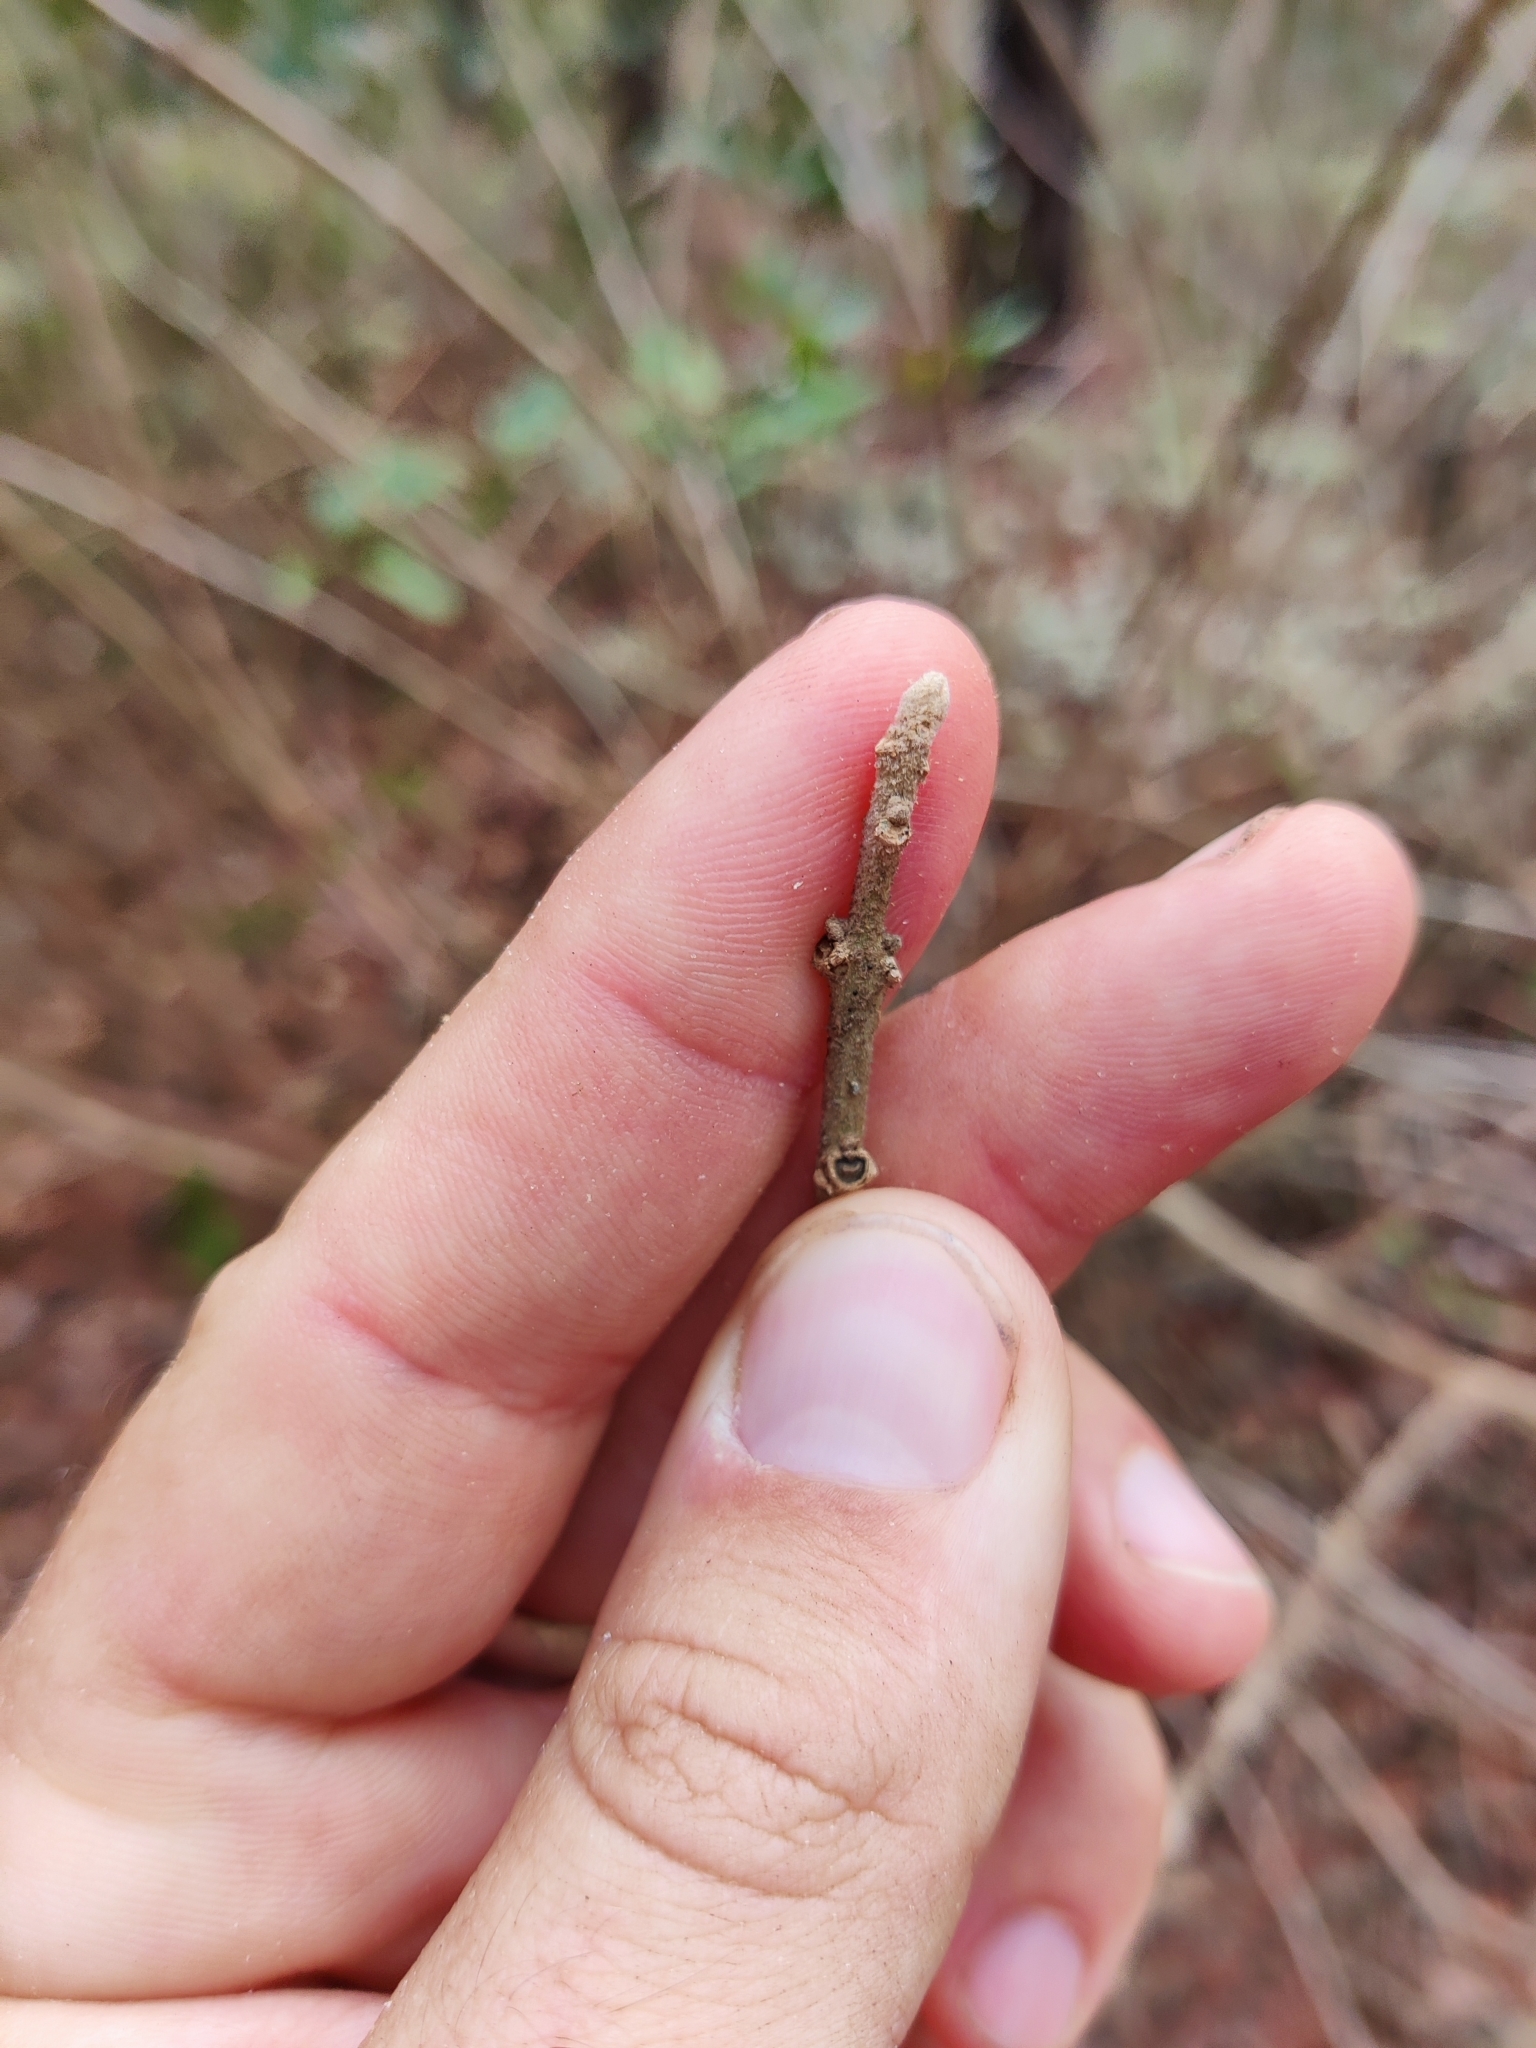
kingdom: Plantae
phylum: Tracheophyta
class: Magnoliopsida
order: Lamiales
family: Lamiaceae
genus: Callicarpa
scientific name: Callicarpa americana
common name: American beautyberry
